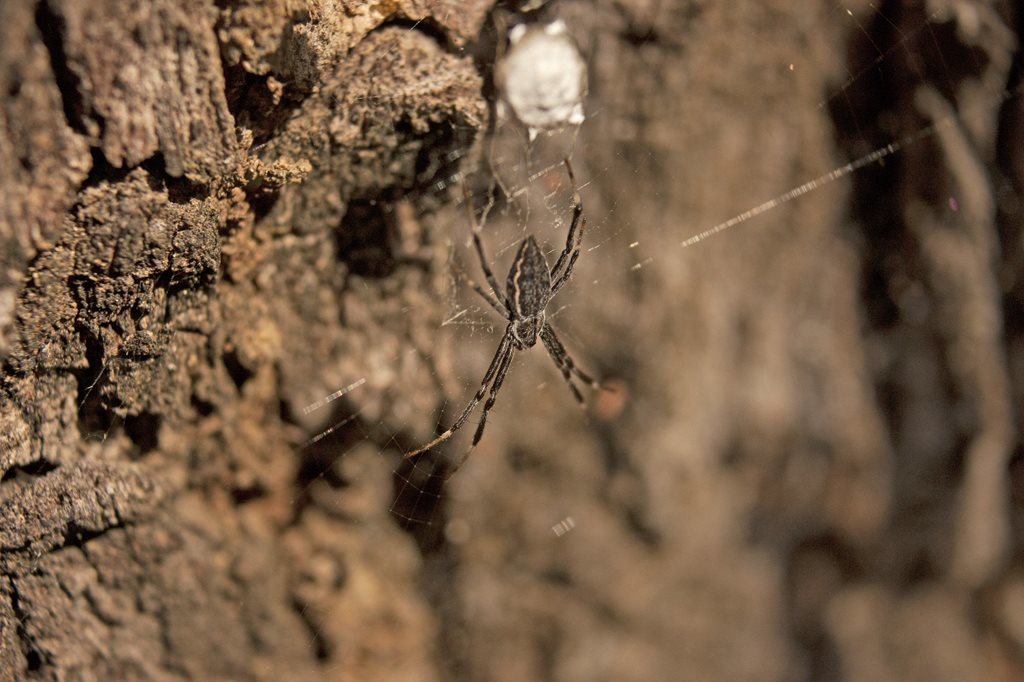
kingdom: Animalia
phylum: Arthropoda
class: Arachnida
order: Araneae
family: Araneidae
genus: Argiope
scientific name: Argiope ocyaloides
